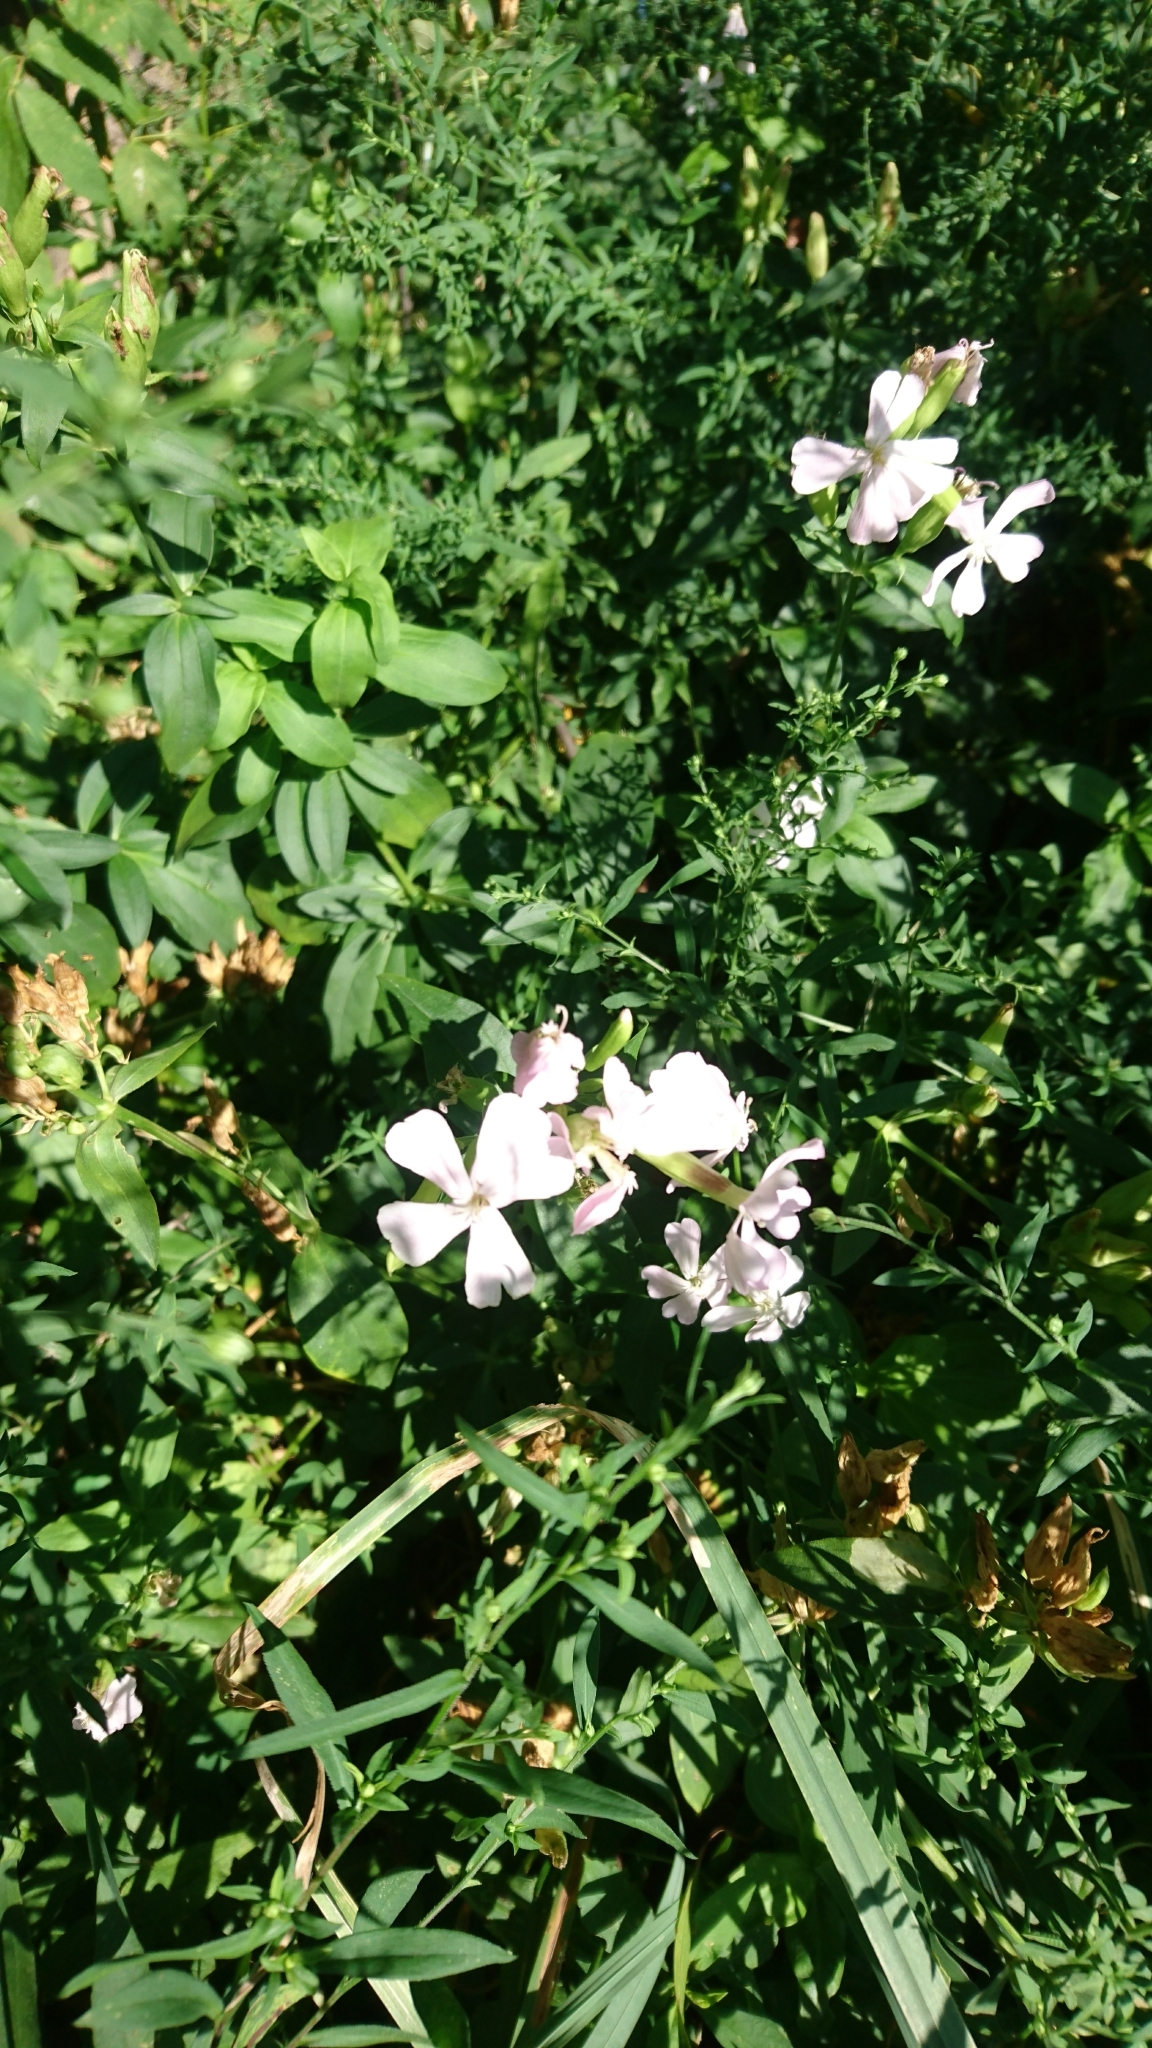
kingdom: Plantae
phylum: Tracheophyta
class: Magnoliopsida
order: Caryophyllales
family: Caryophyllaceae
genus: Saponaria
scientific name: Saponaria officinalis
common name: Soapwort
